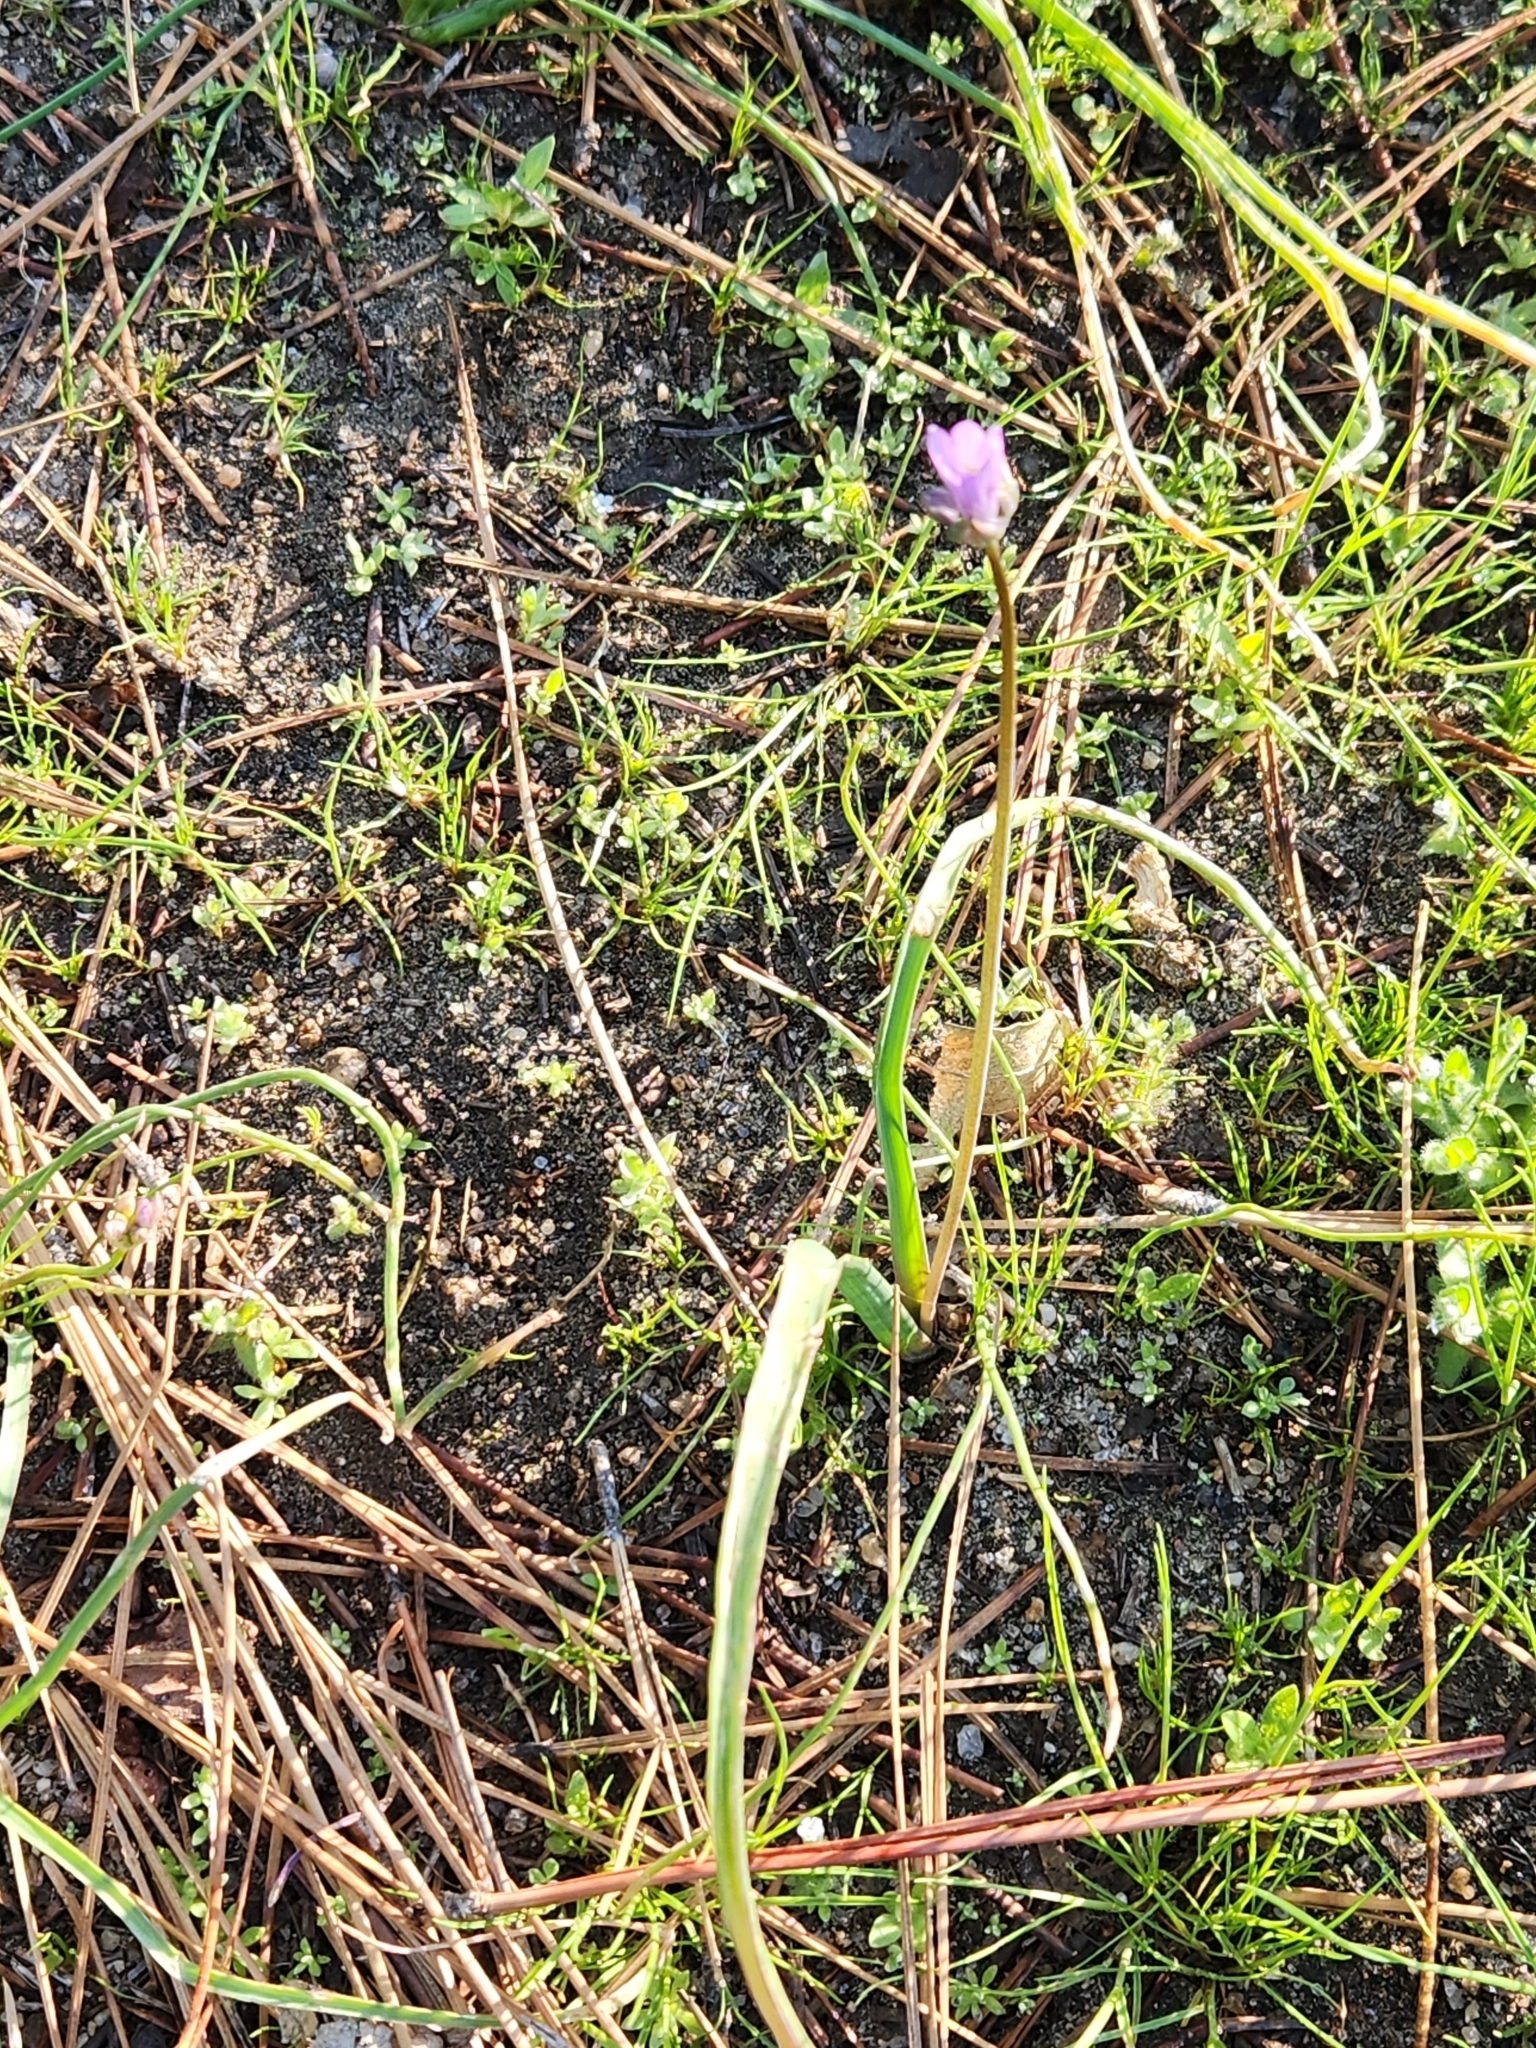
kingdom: Plantae
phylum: Tracheophyta
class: Liliopsida
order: Asparagales
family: Asparagaceae
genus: Dipterostemon
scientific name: Dipterostemon capitatus
